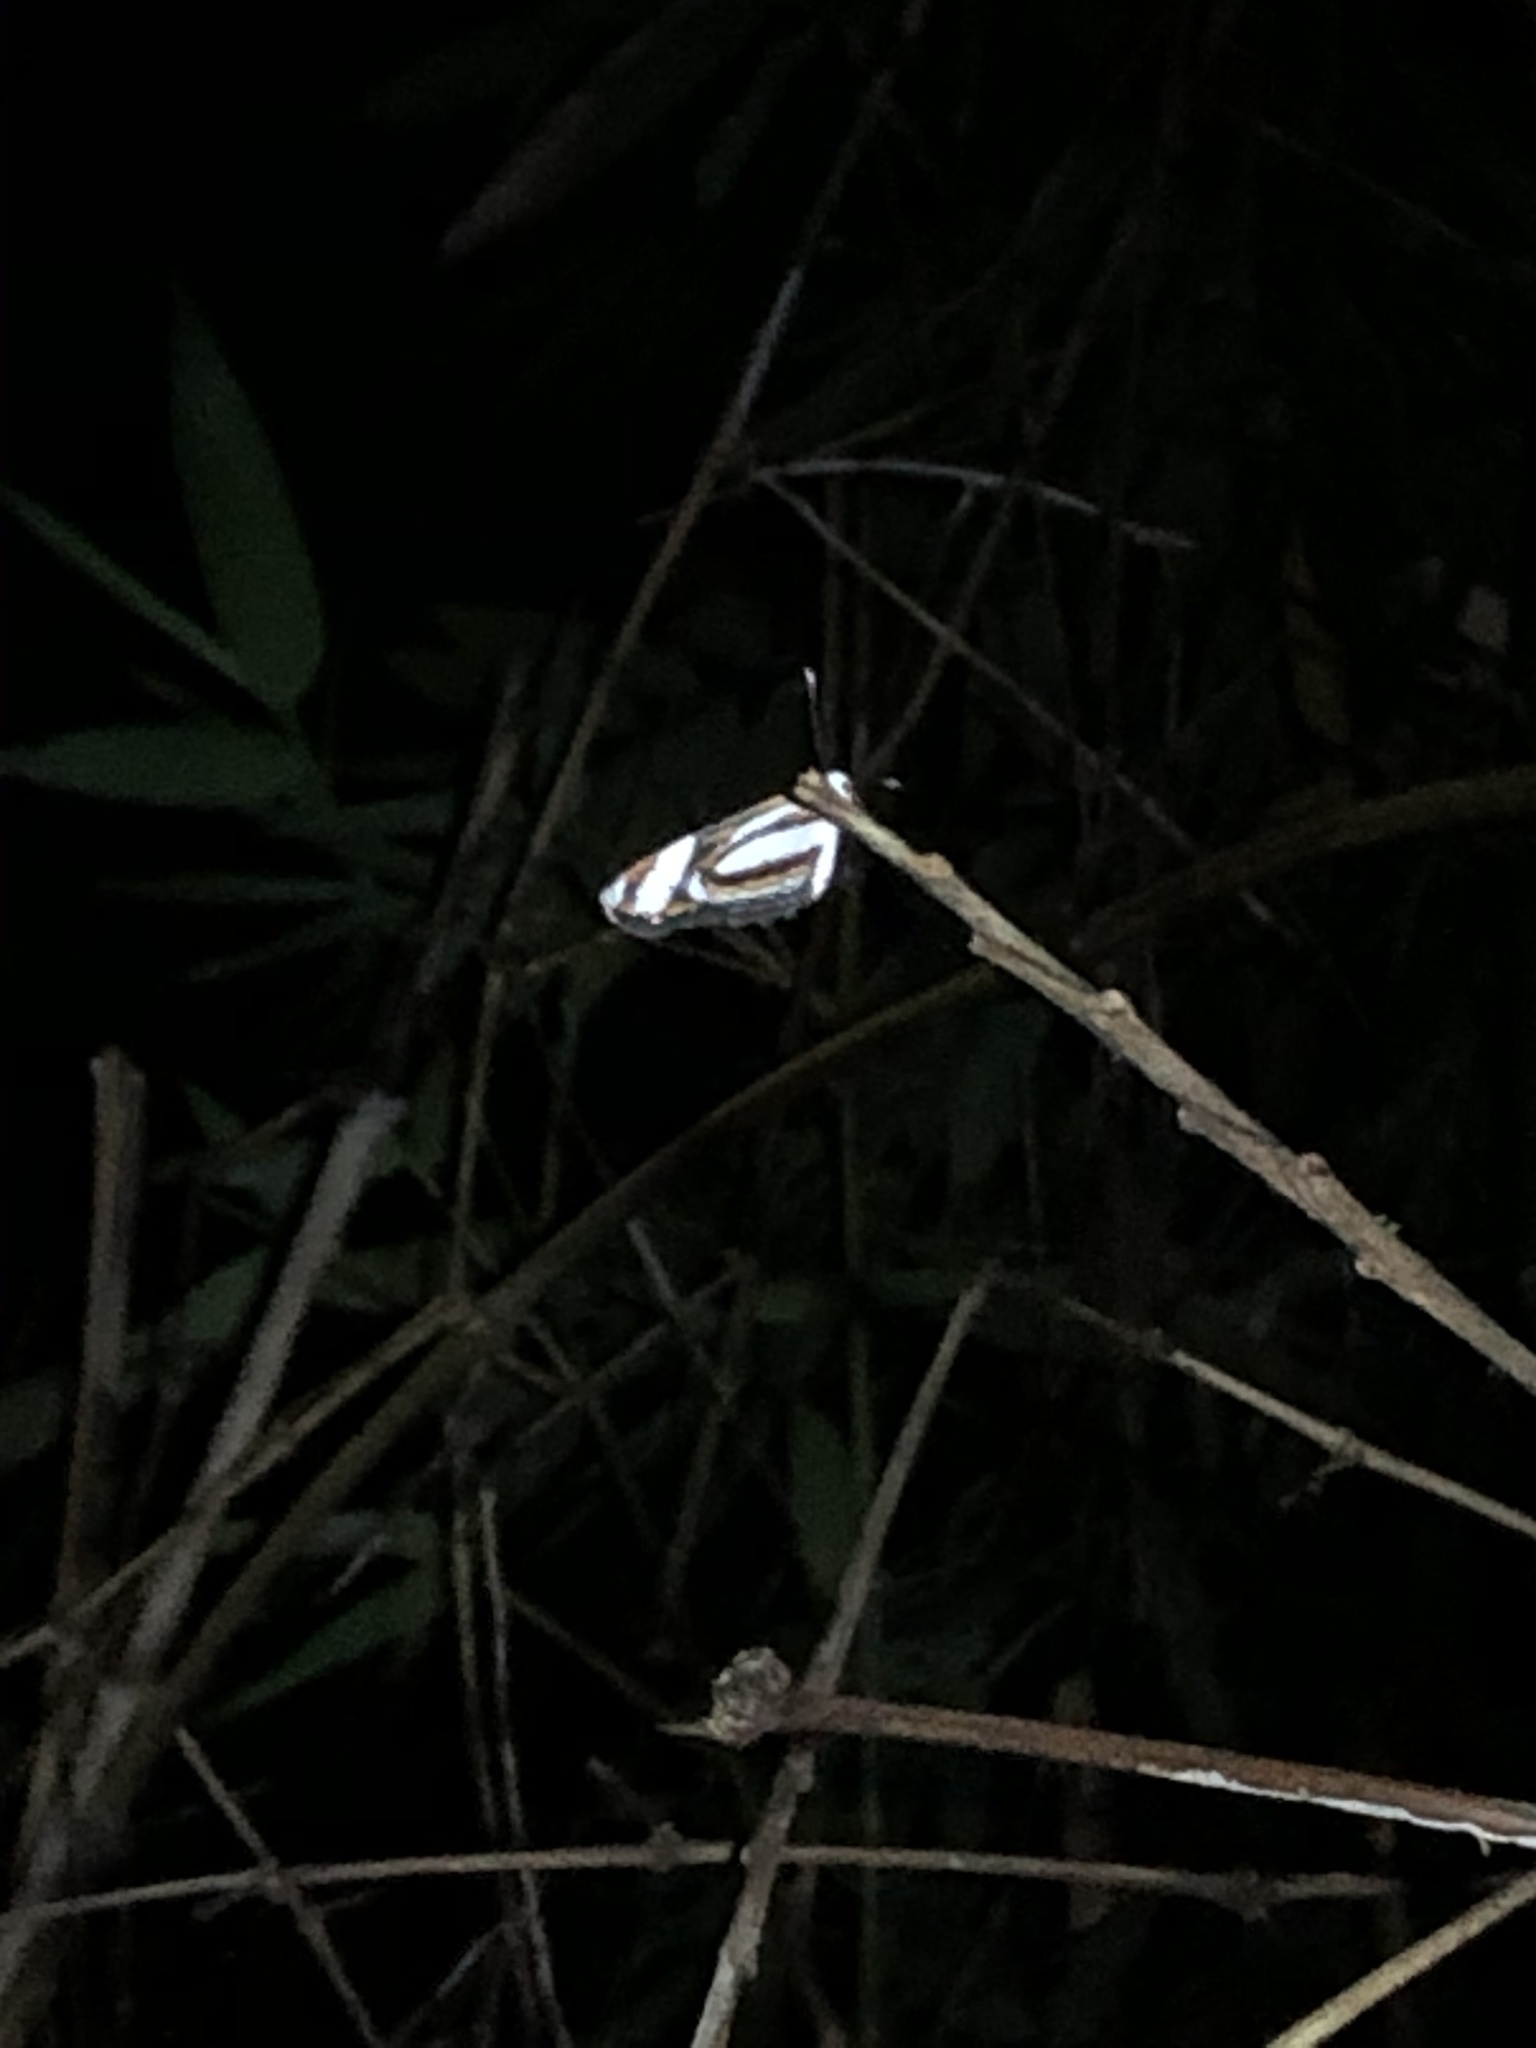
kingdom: Animalia
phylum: Arthropoda
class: Insecta
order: Lepidoptera
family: Nymphalidae
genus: Eresia
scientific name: Eresia nauplius
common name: Nauplius crescent
